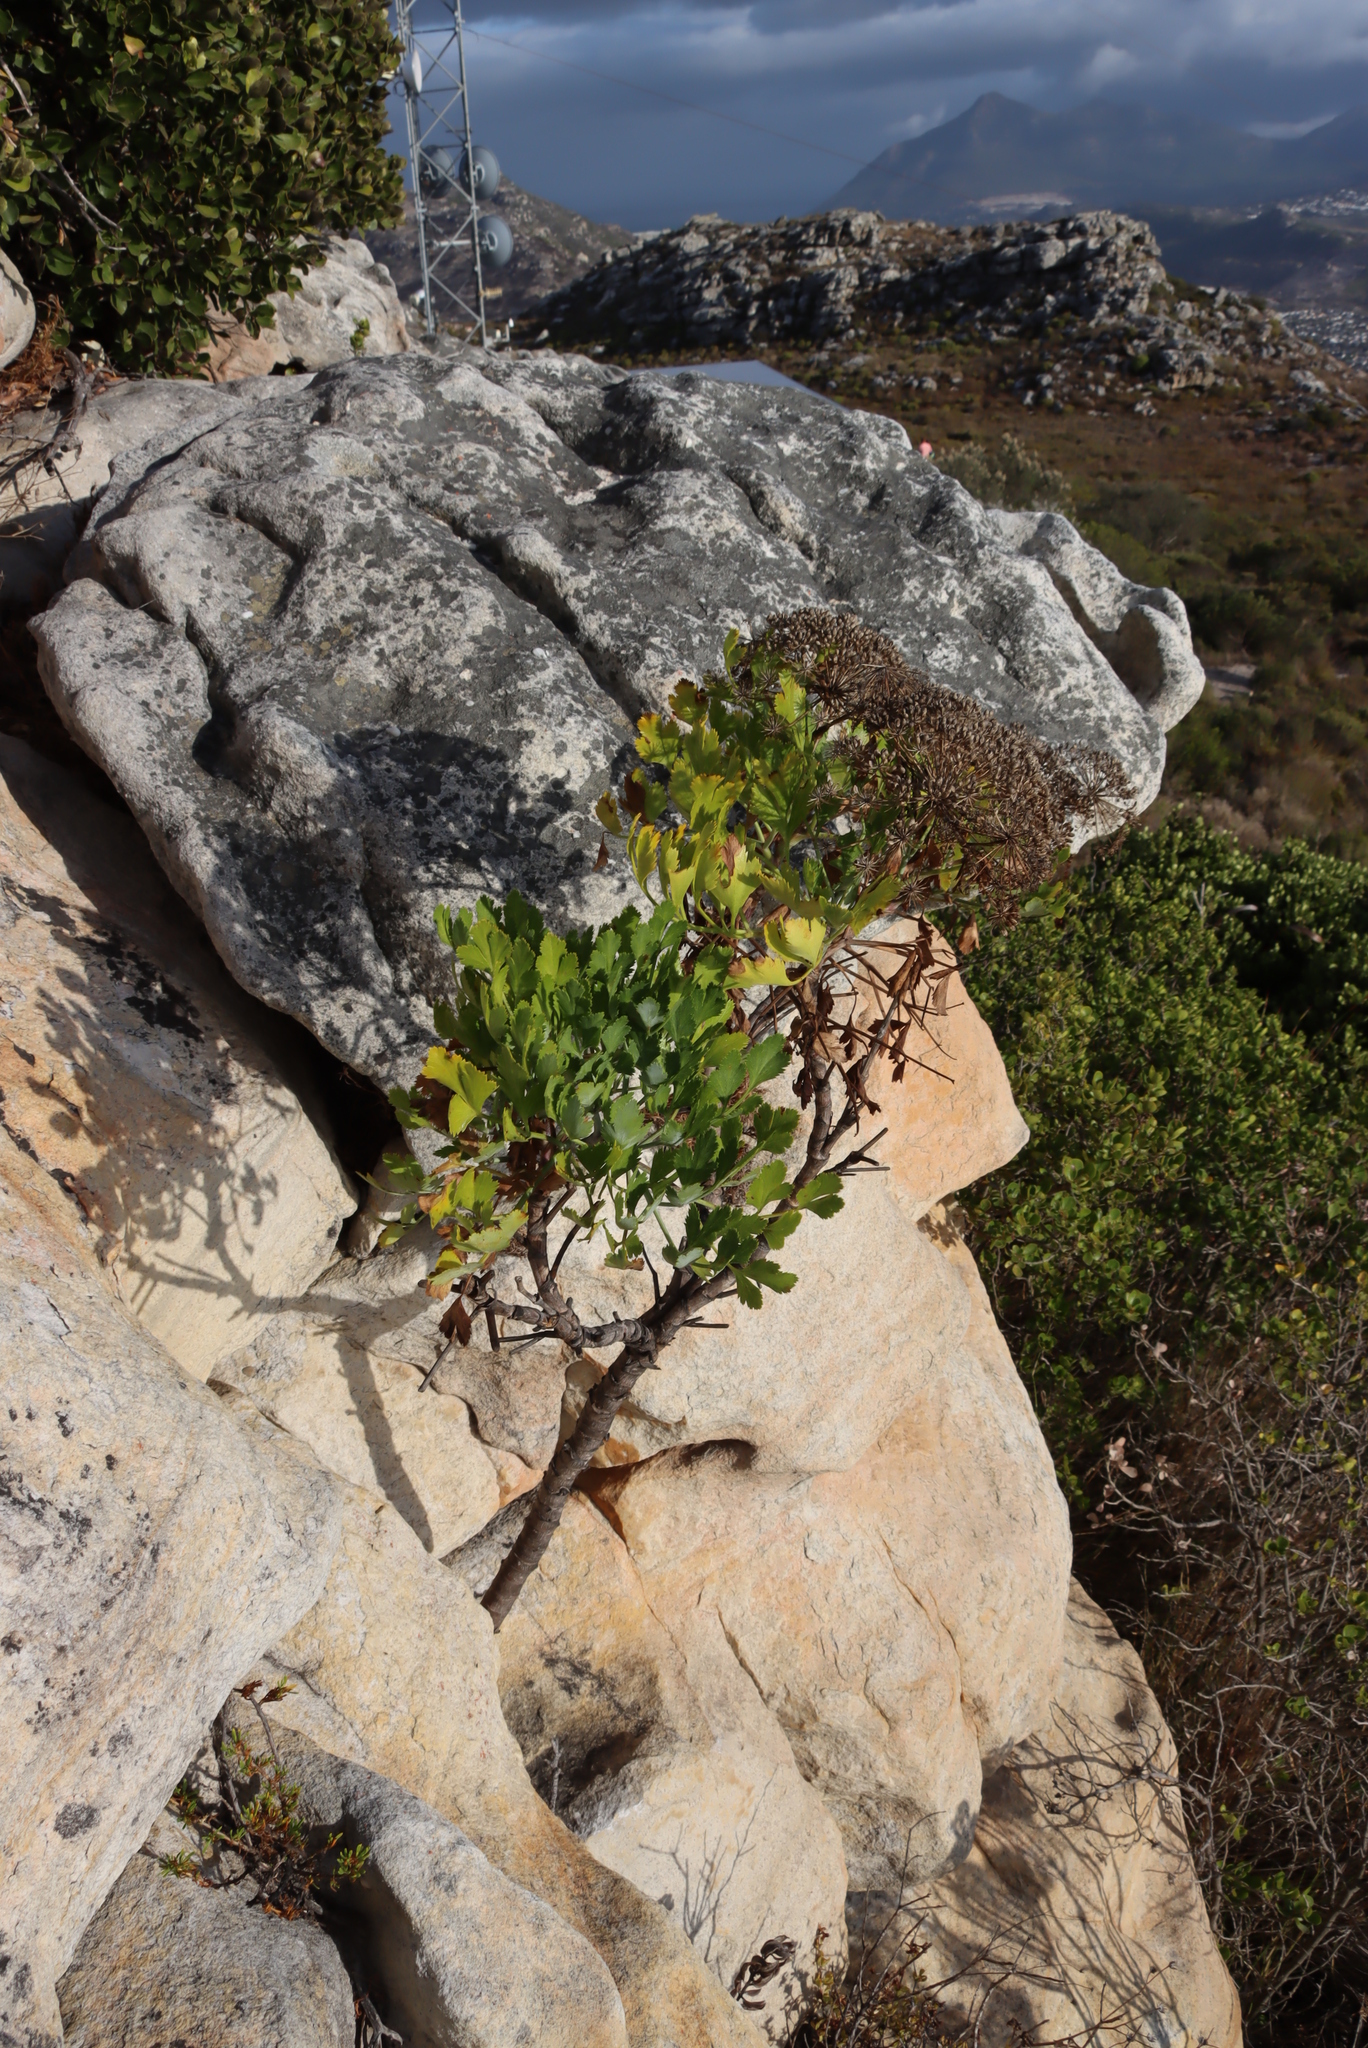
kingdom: Plantae
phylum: Tracheophyta
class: Magnoliopsida
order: Apiales
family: Apiaceae
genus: Notobubon
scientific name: Notobubon galbanum
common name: Blisterbush
